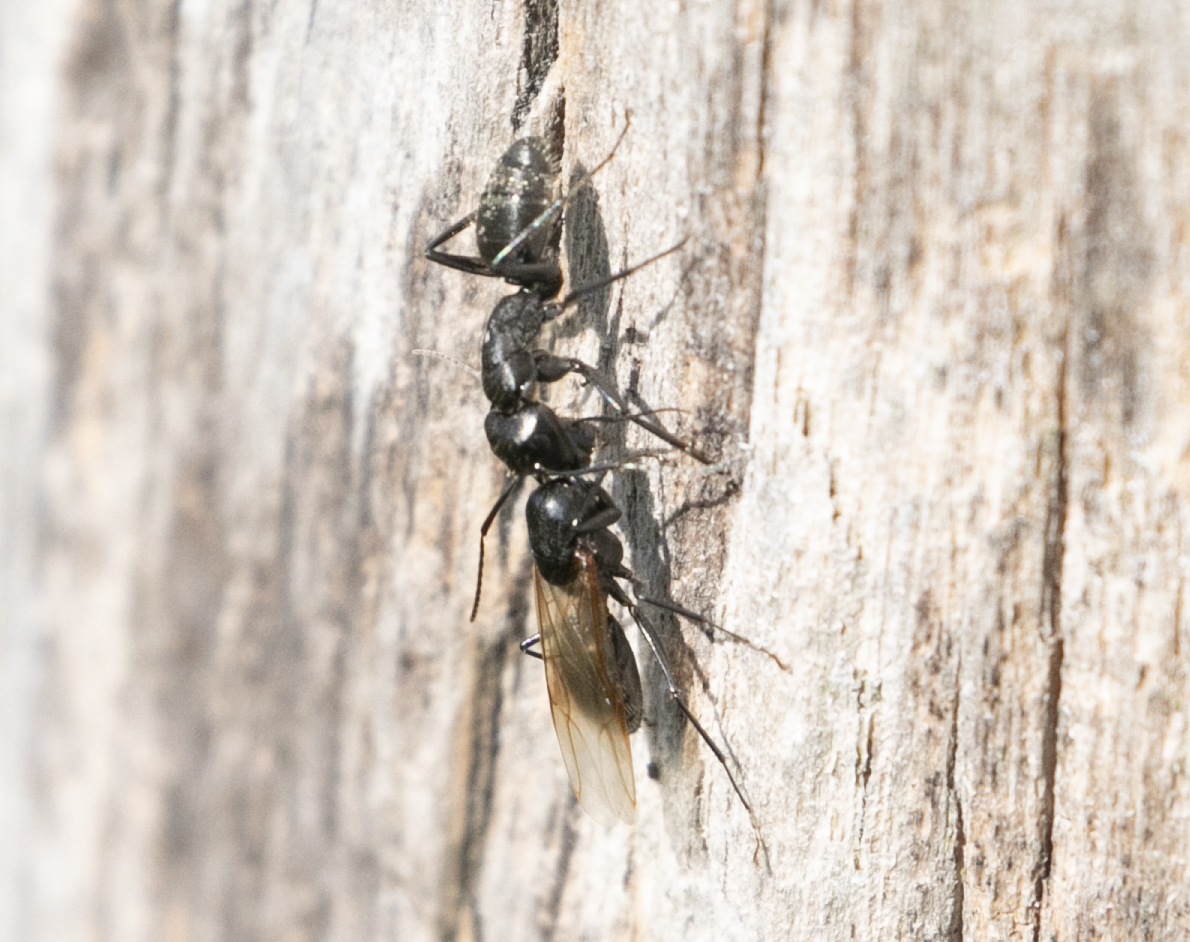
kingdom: Animalia
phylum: Arthropoda
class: Insecta
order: Hymenoptera
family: Formicidae
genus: Camponotus
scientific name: Camponotus vagus
